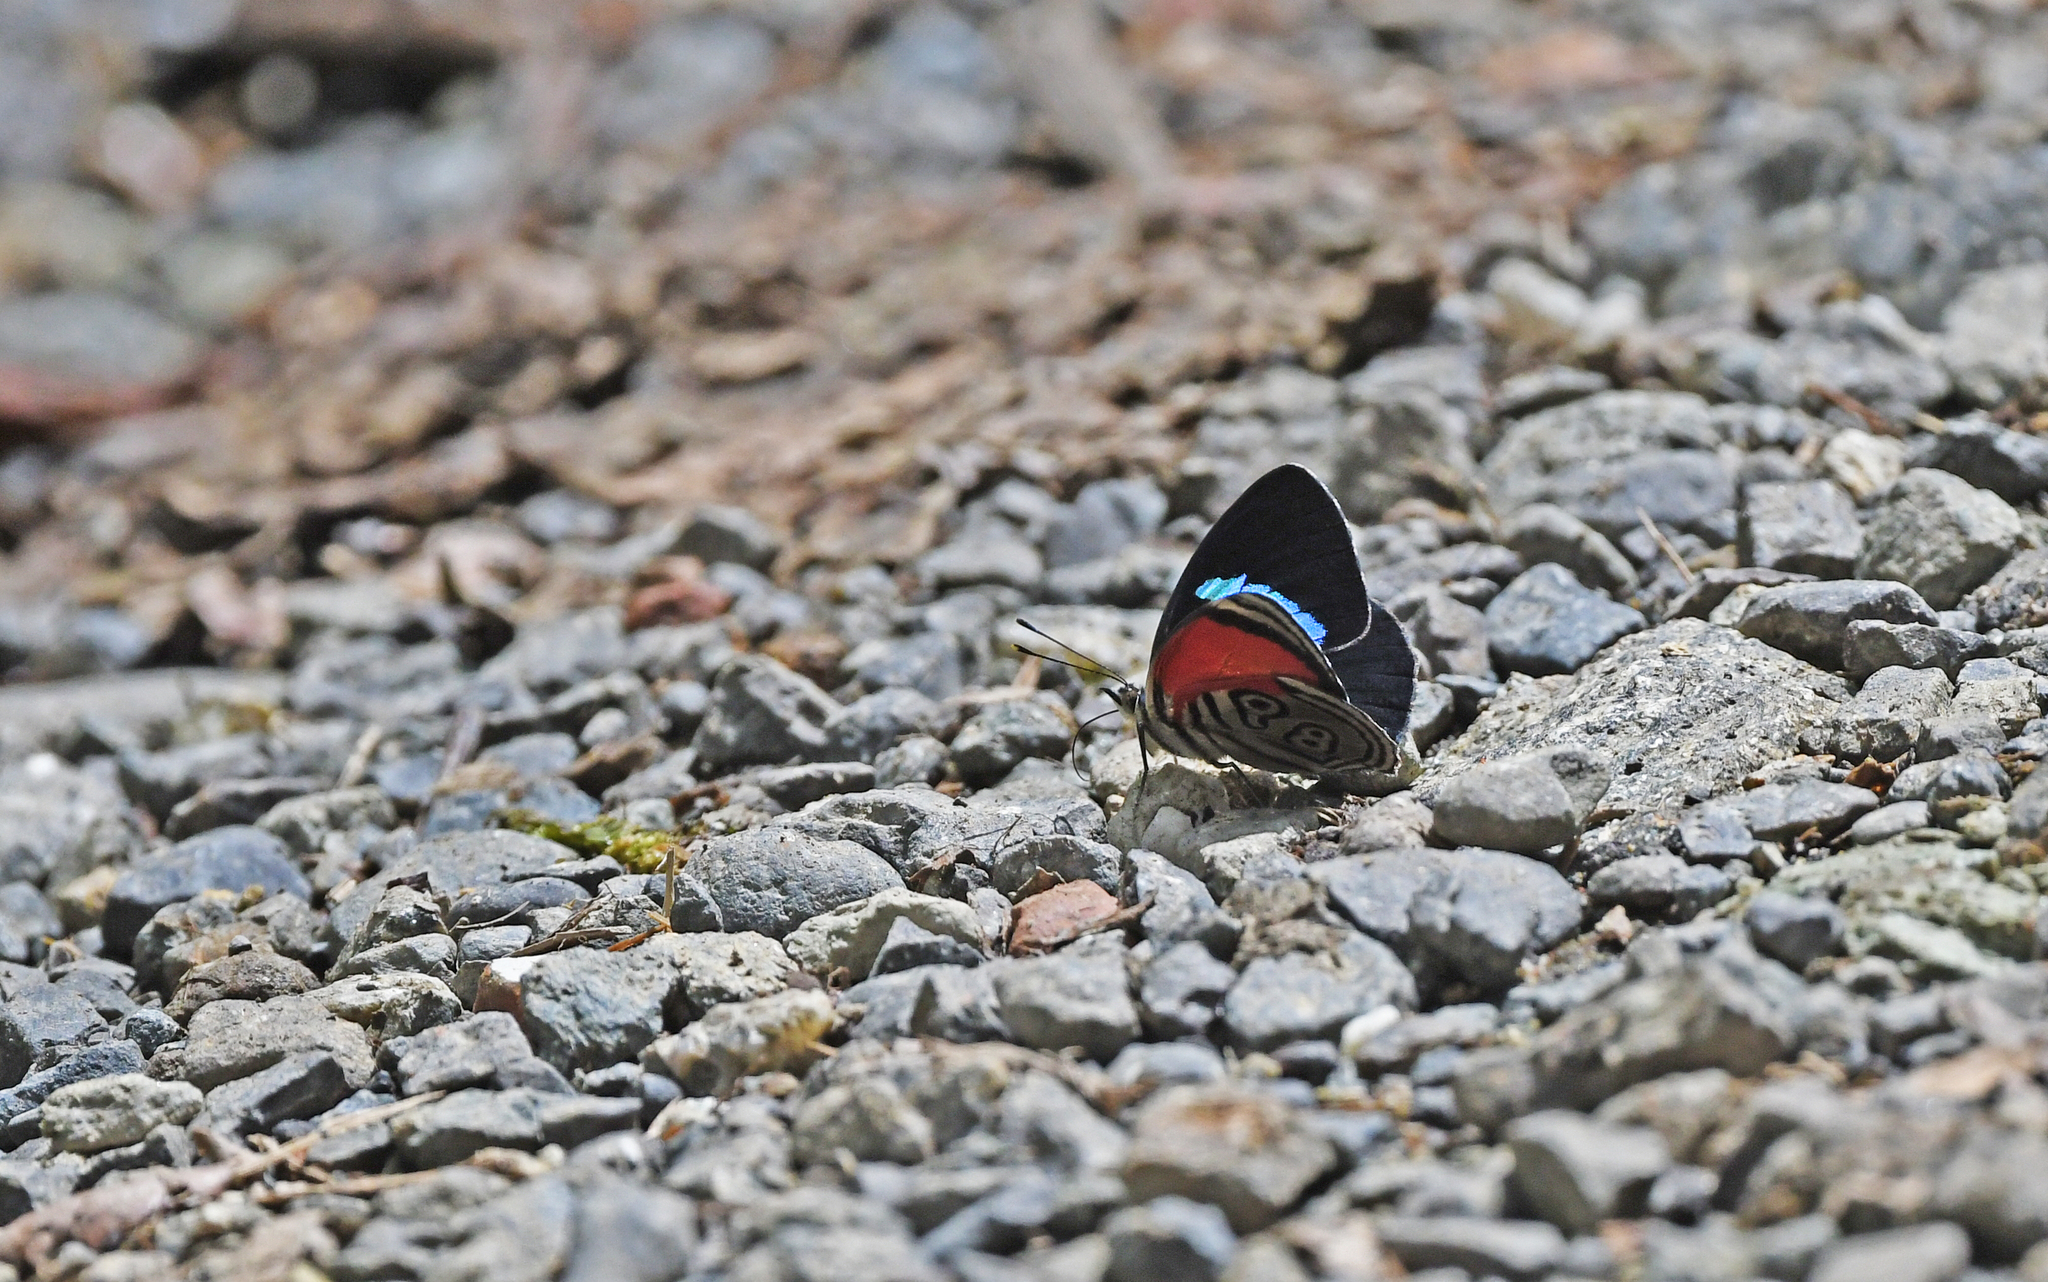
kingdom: Animalia
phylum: Arthropoda
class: Insecta
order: Lepidoptera
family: Nymphalidae
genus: Diaethria
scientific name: Diaethria clymena
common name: Widespread eighty-eight
